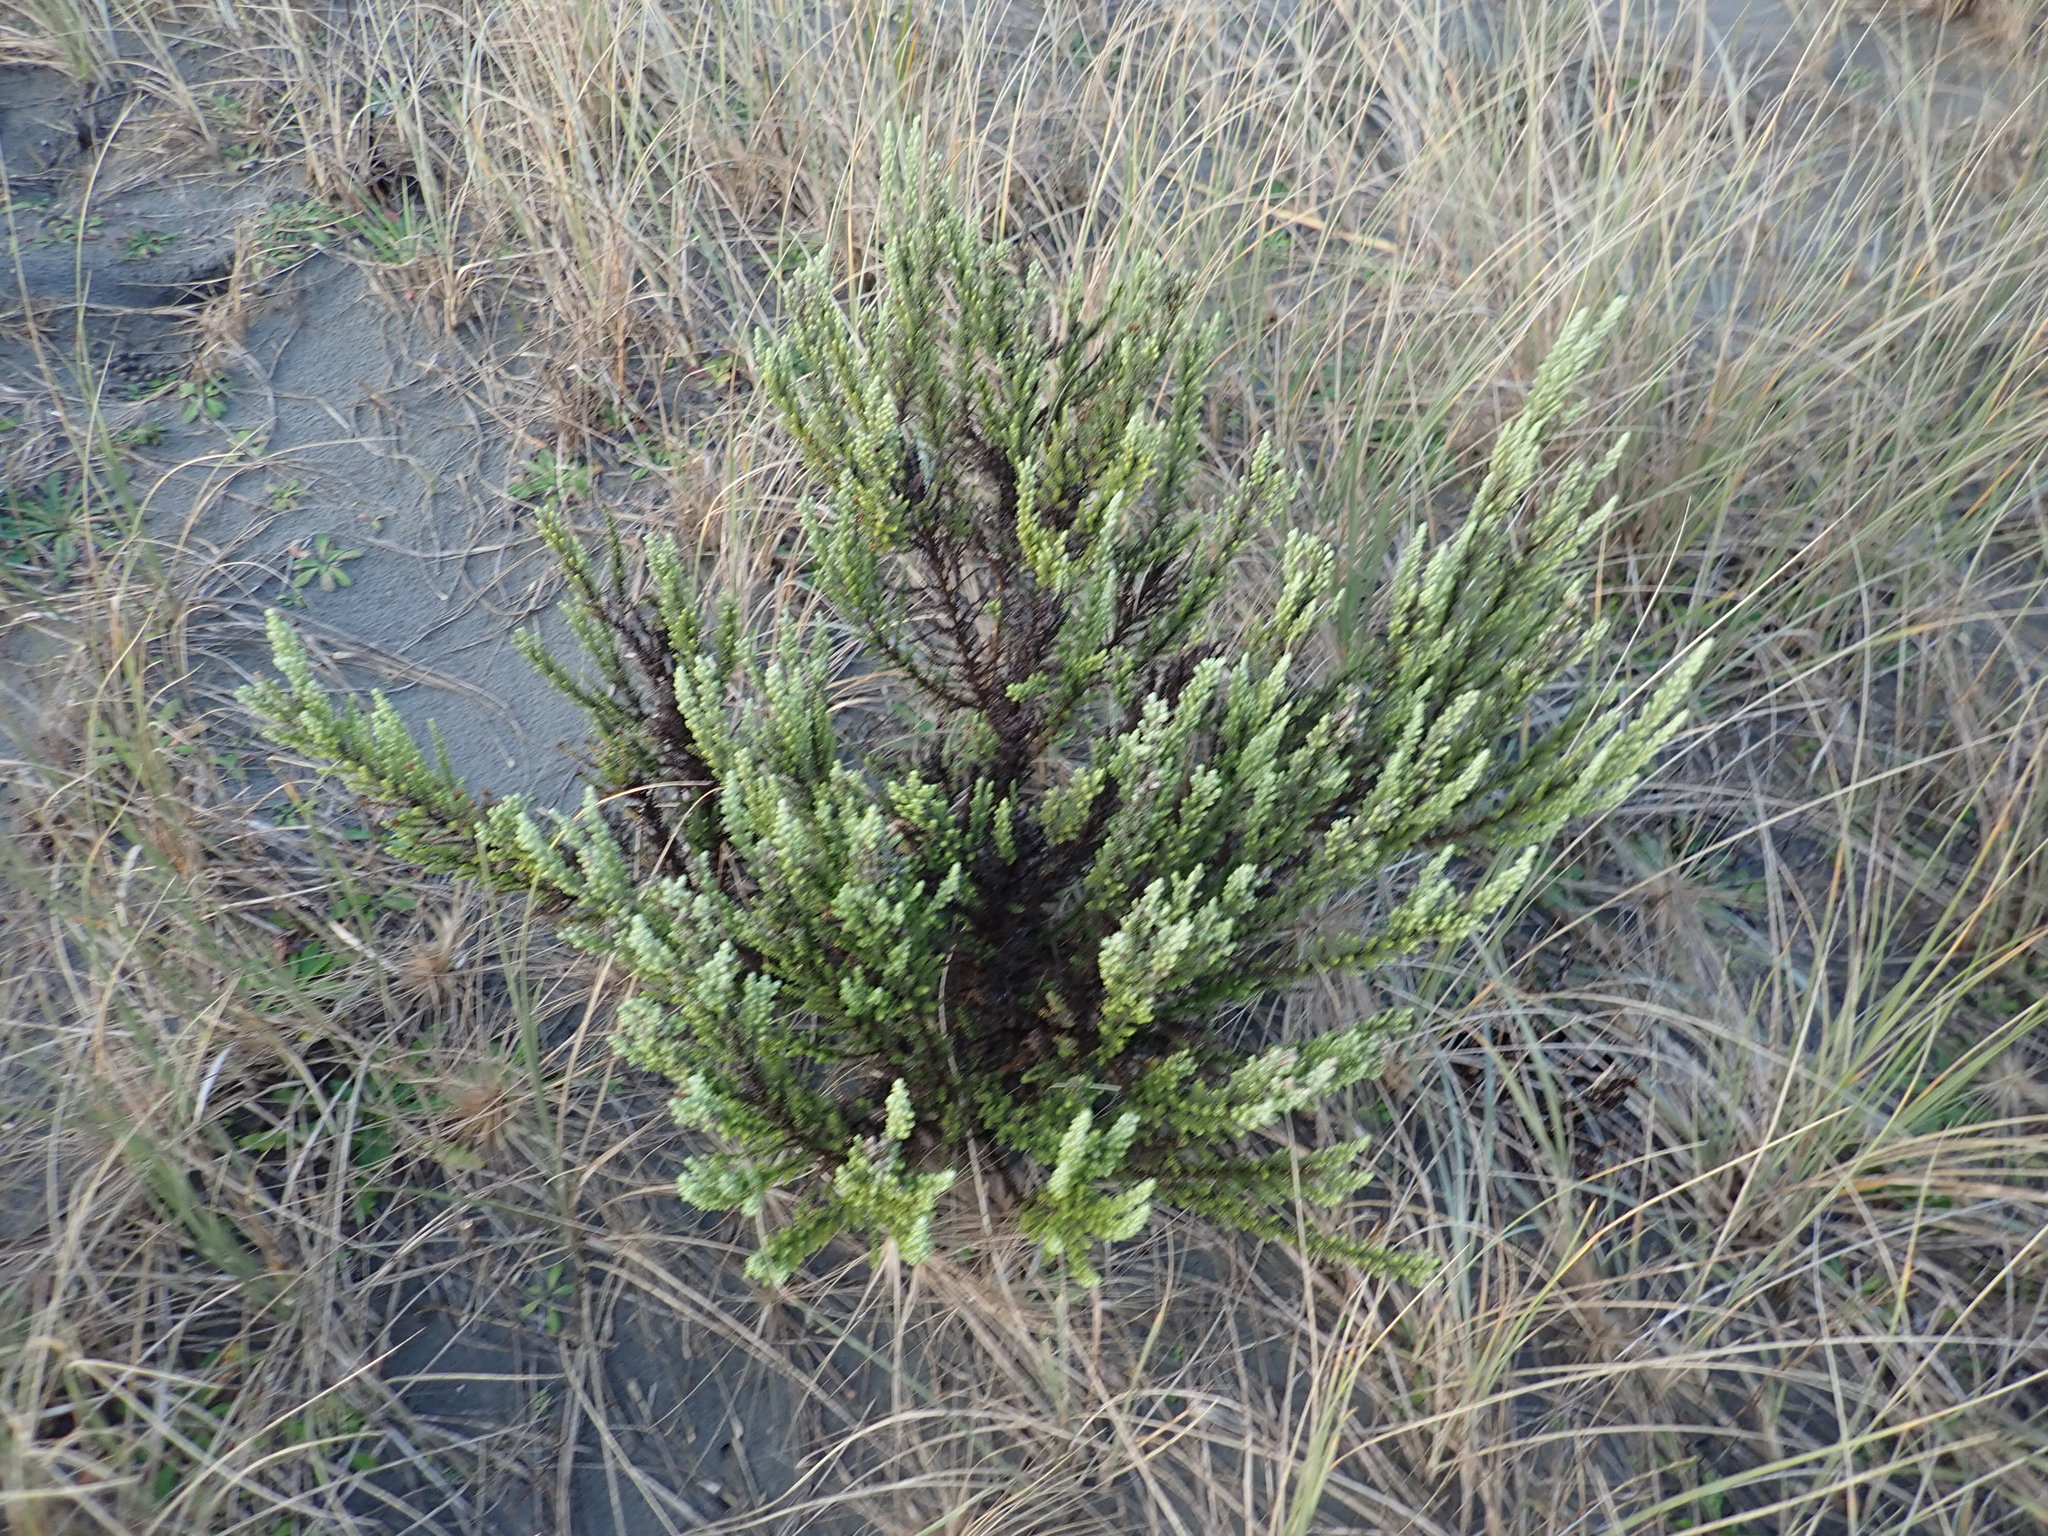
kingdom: Plantae
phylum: Tracheophyta
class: Magnoliopsida
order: Asterales
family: Asteraceae
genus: Ozothamnus
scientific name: Ozothamnus leptophyllus
